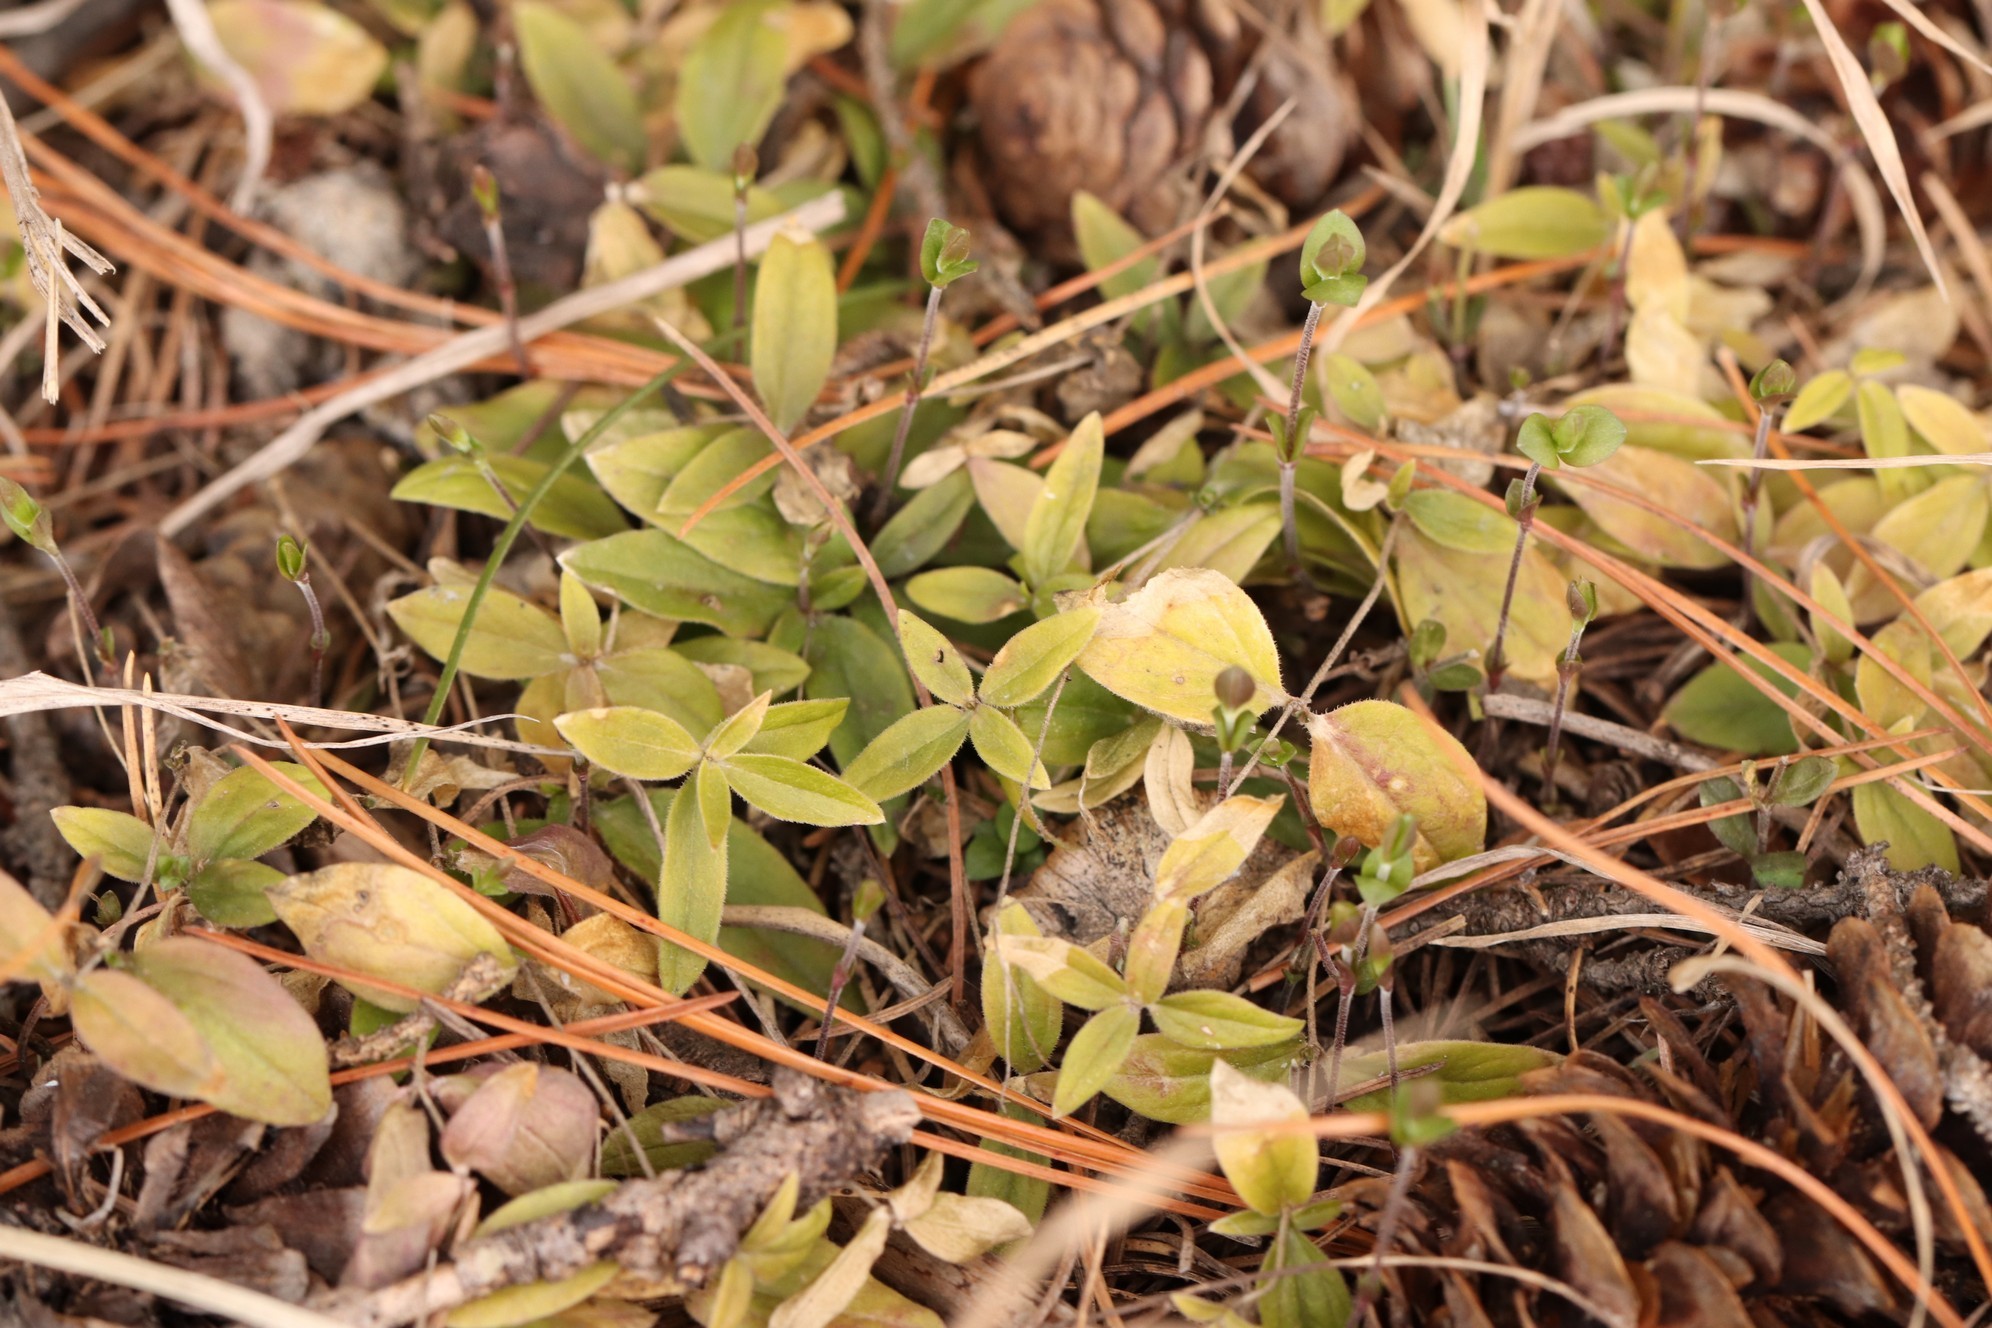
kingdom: Plantae
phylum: Tracheophyta
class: Magnoliopsida
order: Caryophyllales
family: Caryophyllaceae
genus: Moehringia
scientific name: Moehringia lateriflora
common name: Blunt-leaved sandwort
